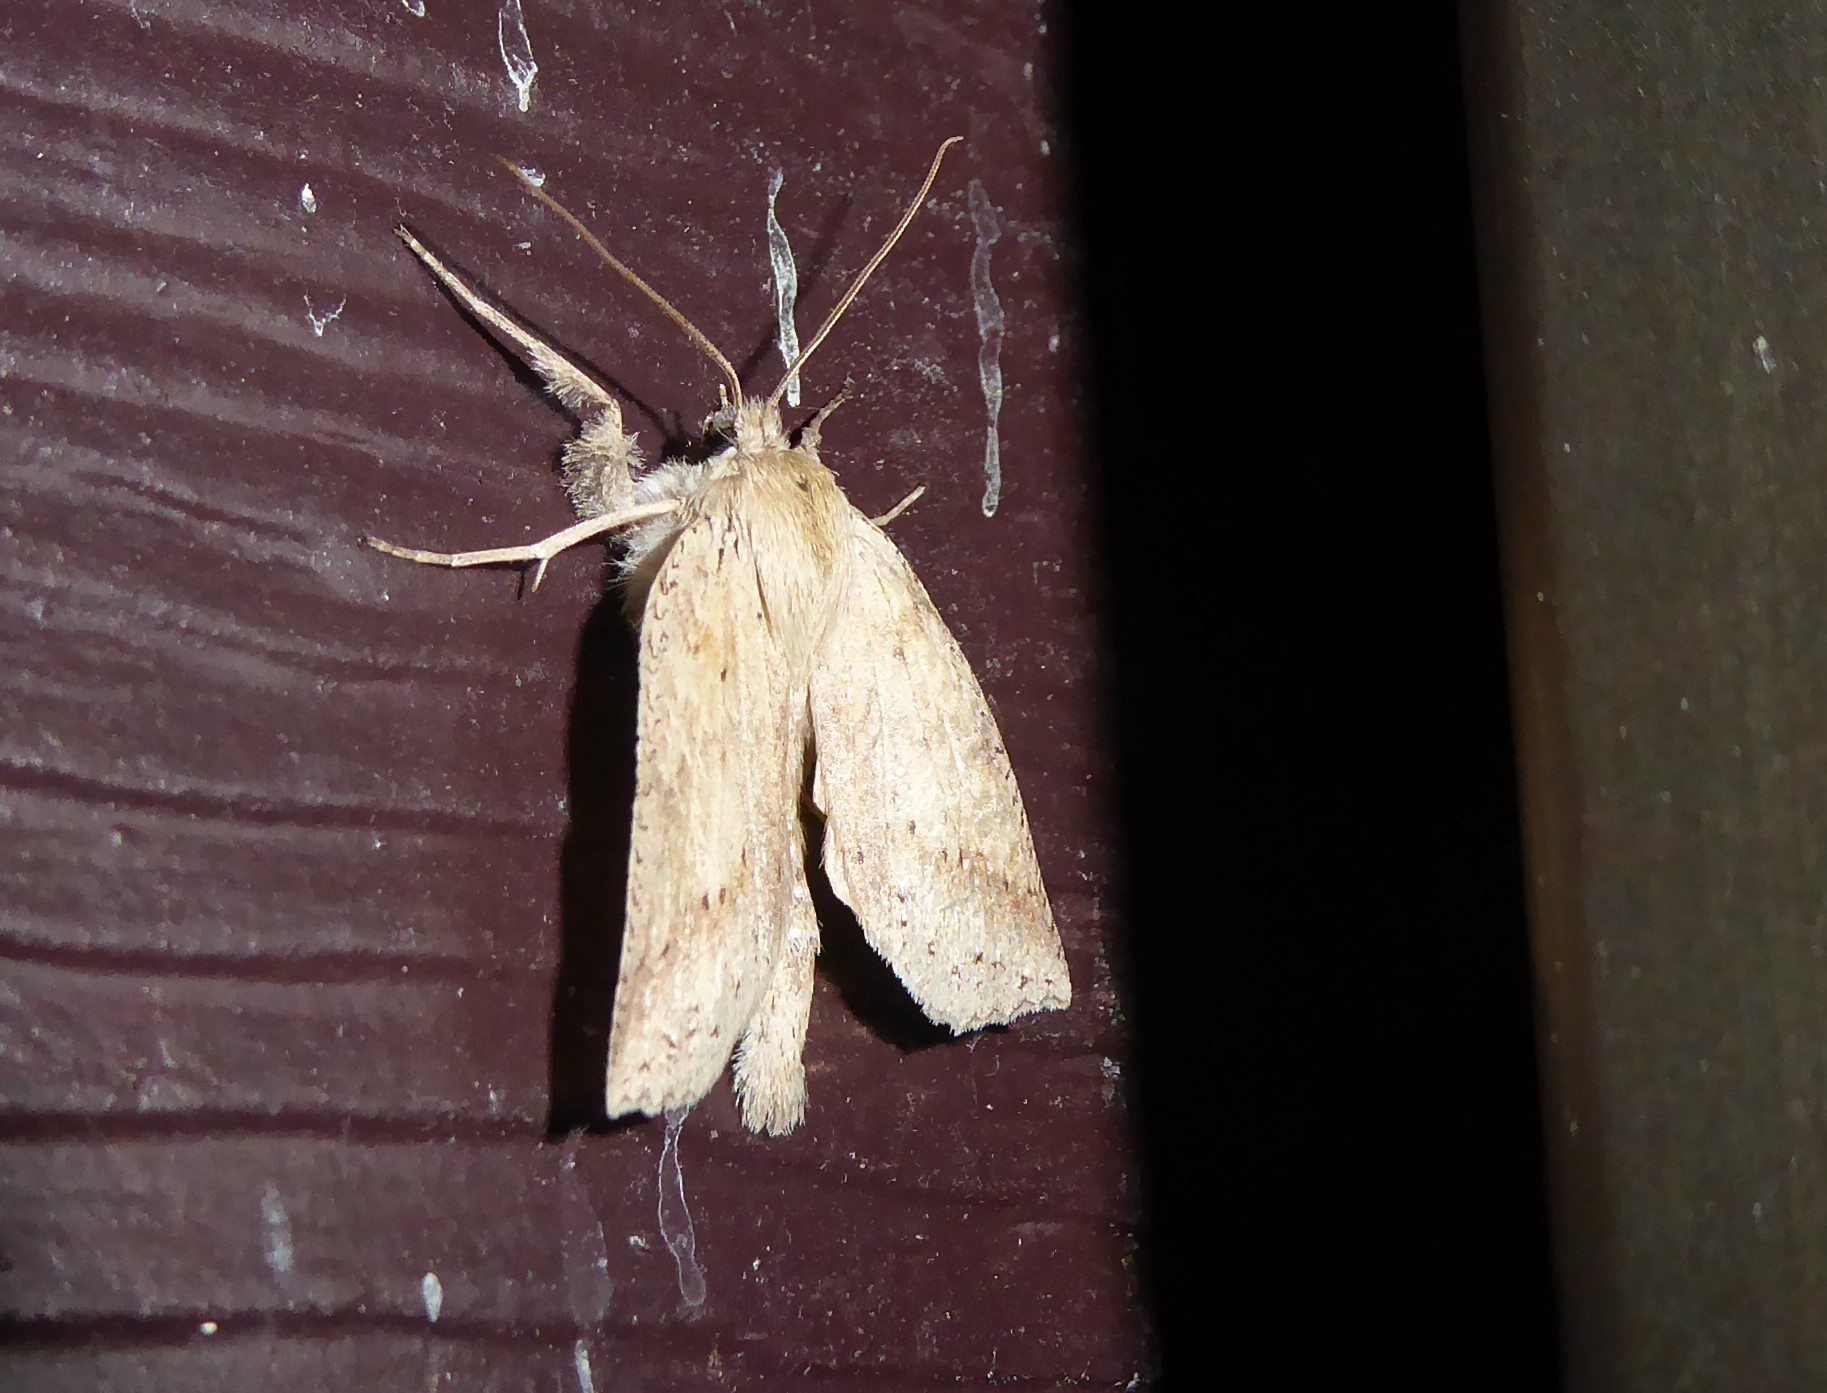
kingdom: Animalia
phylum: Arthropoda
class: Insecta
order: Lepidoptera
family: Geometridae
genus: Declana
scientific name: Declana leptomera
